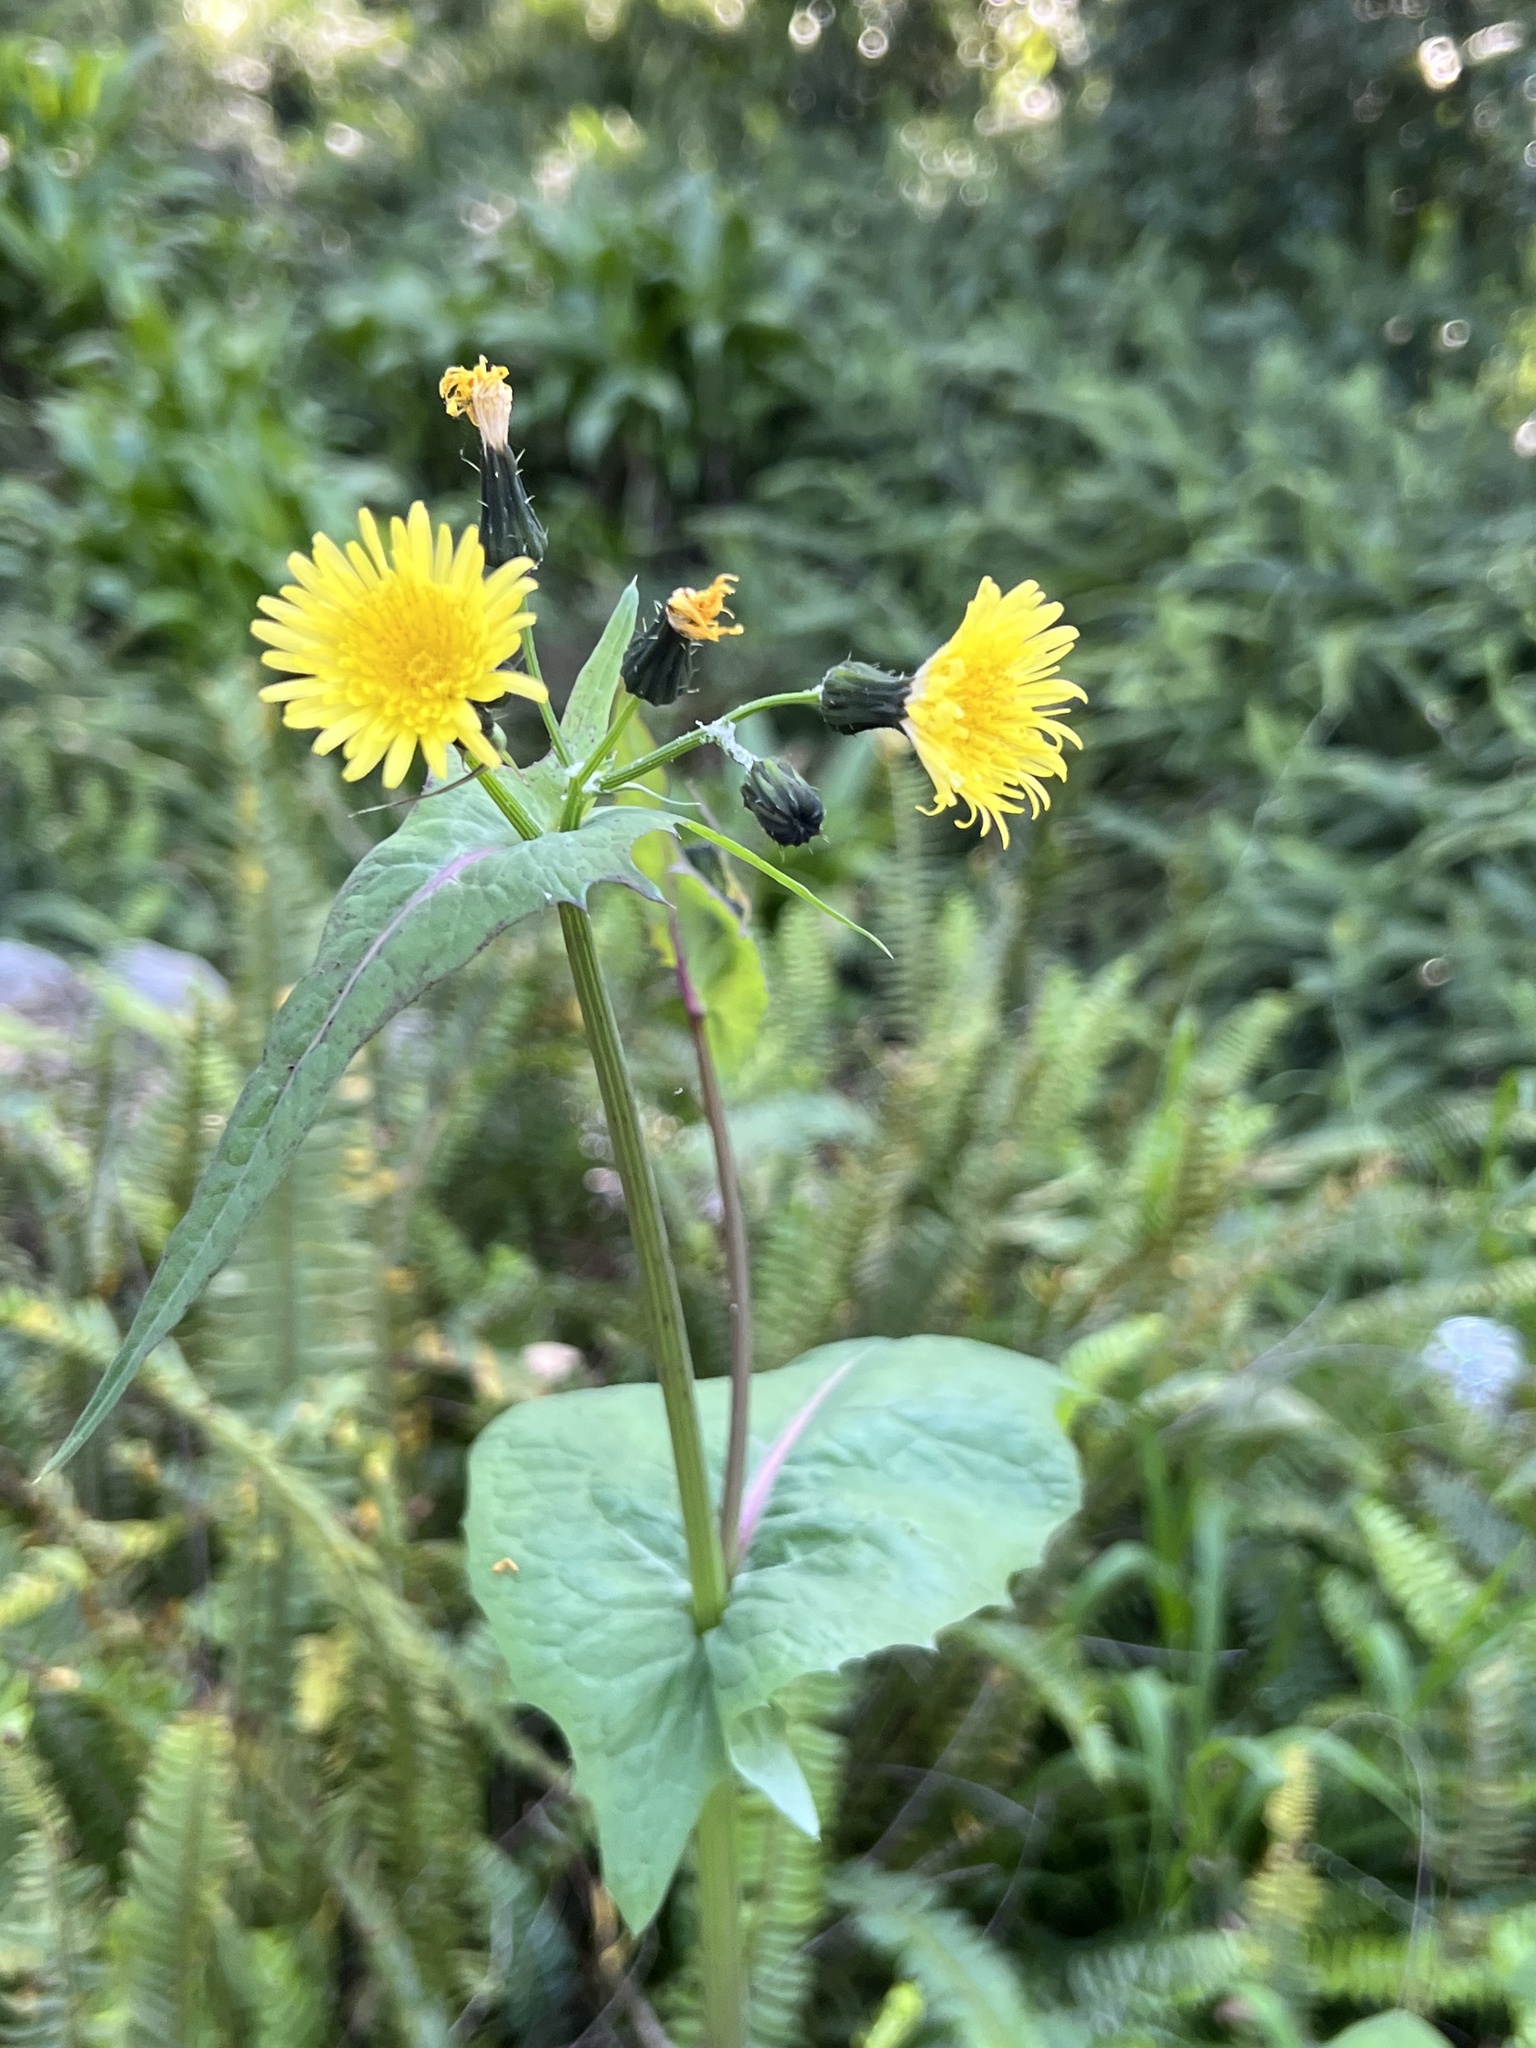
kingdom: Plantae
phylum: Tracheophyta
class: Magnoliopsida
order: Asterales
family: Asteraceae
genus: Sonchus
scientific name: Sonchus oleraceus
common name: Common sowthistle
